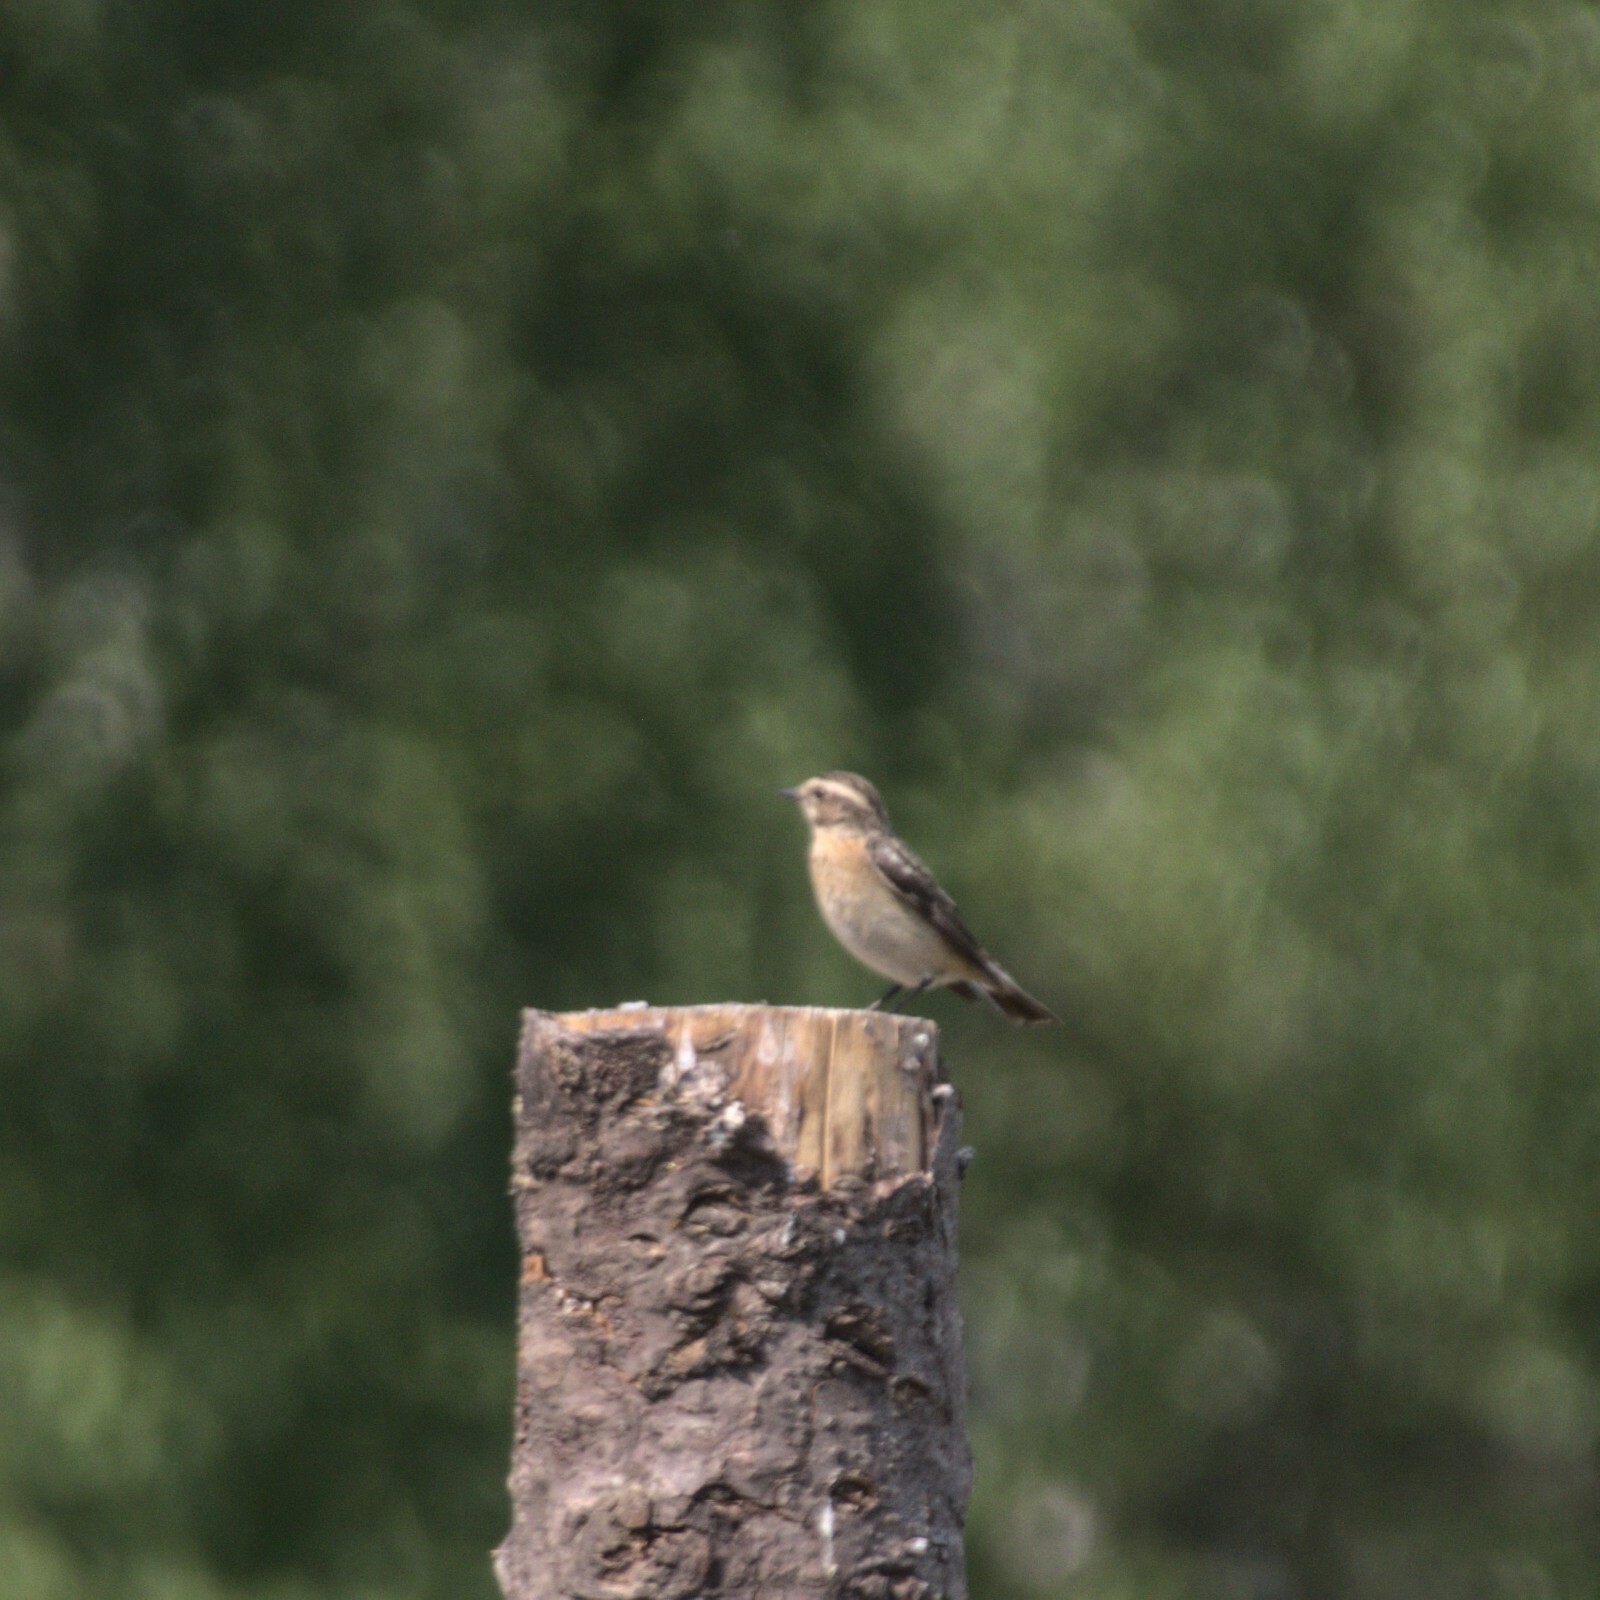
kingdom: Animalia
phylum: Chordata
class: Aves
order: Passeriformes
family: Muscicapidae
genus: Saxicola
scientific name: Saxicola rubetra
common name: Whinchat
